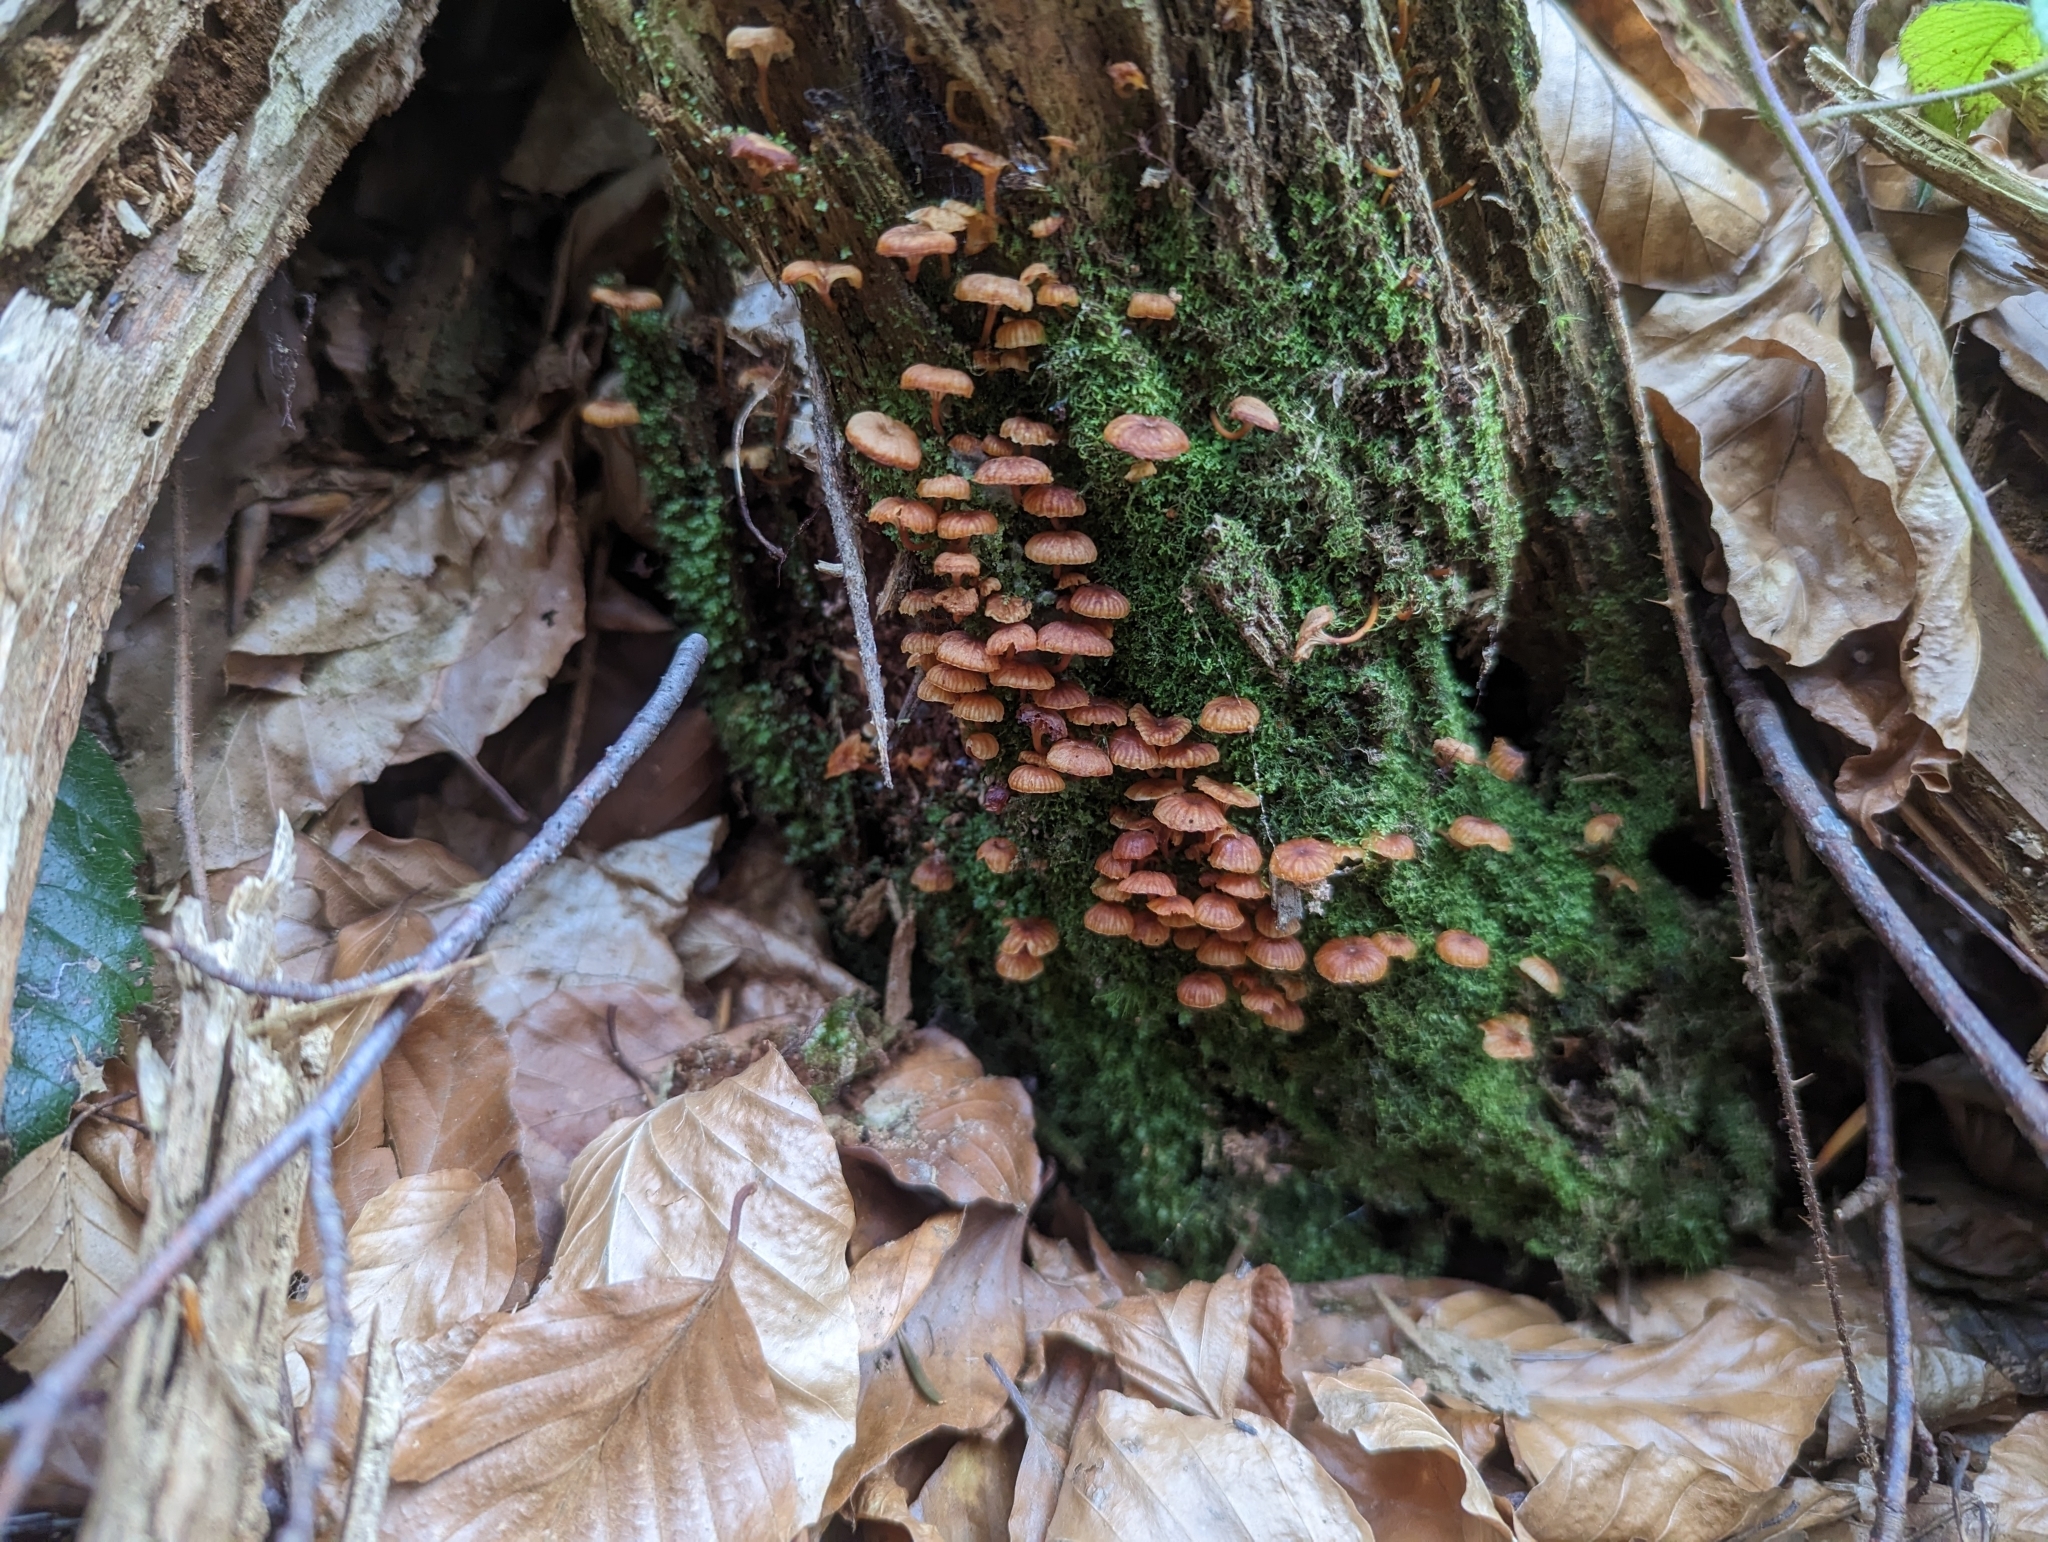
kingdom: Fungi
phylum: Basidiomycota
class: Agaricomycetes
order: Agaricales
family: Mycenaceae
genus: Xeromphalina
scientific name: Xeromphalina campanella
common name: Pinewood gingertail
